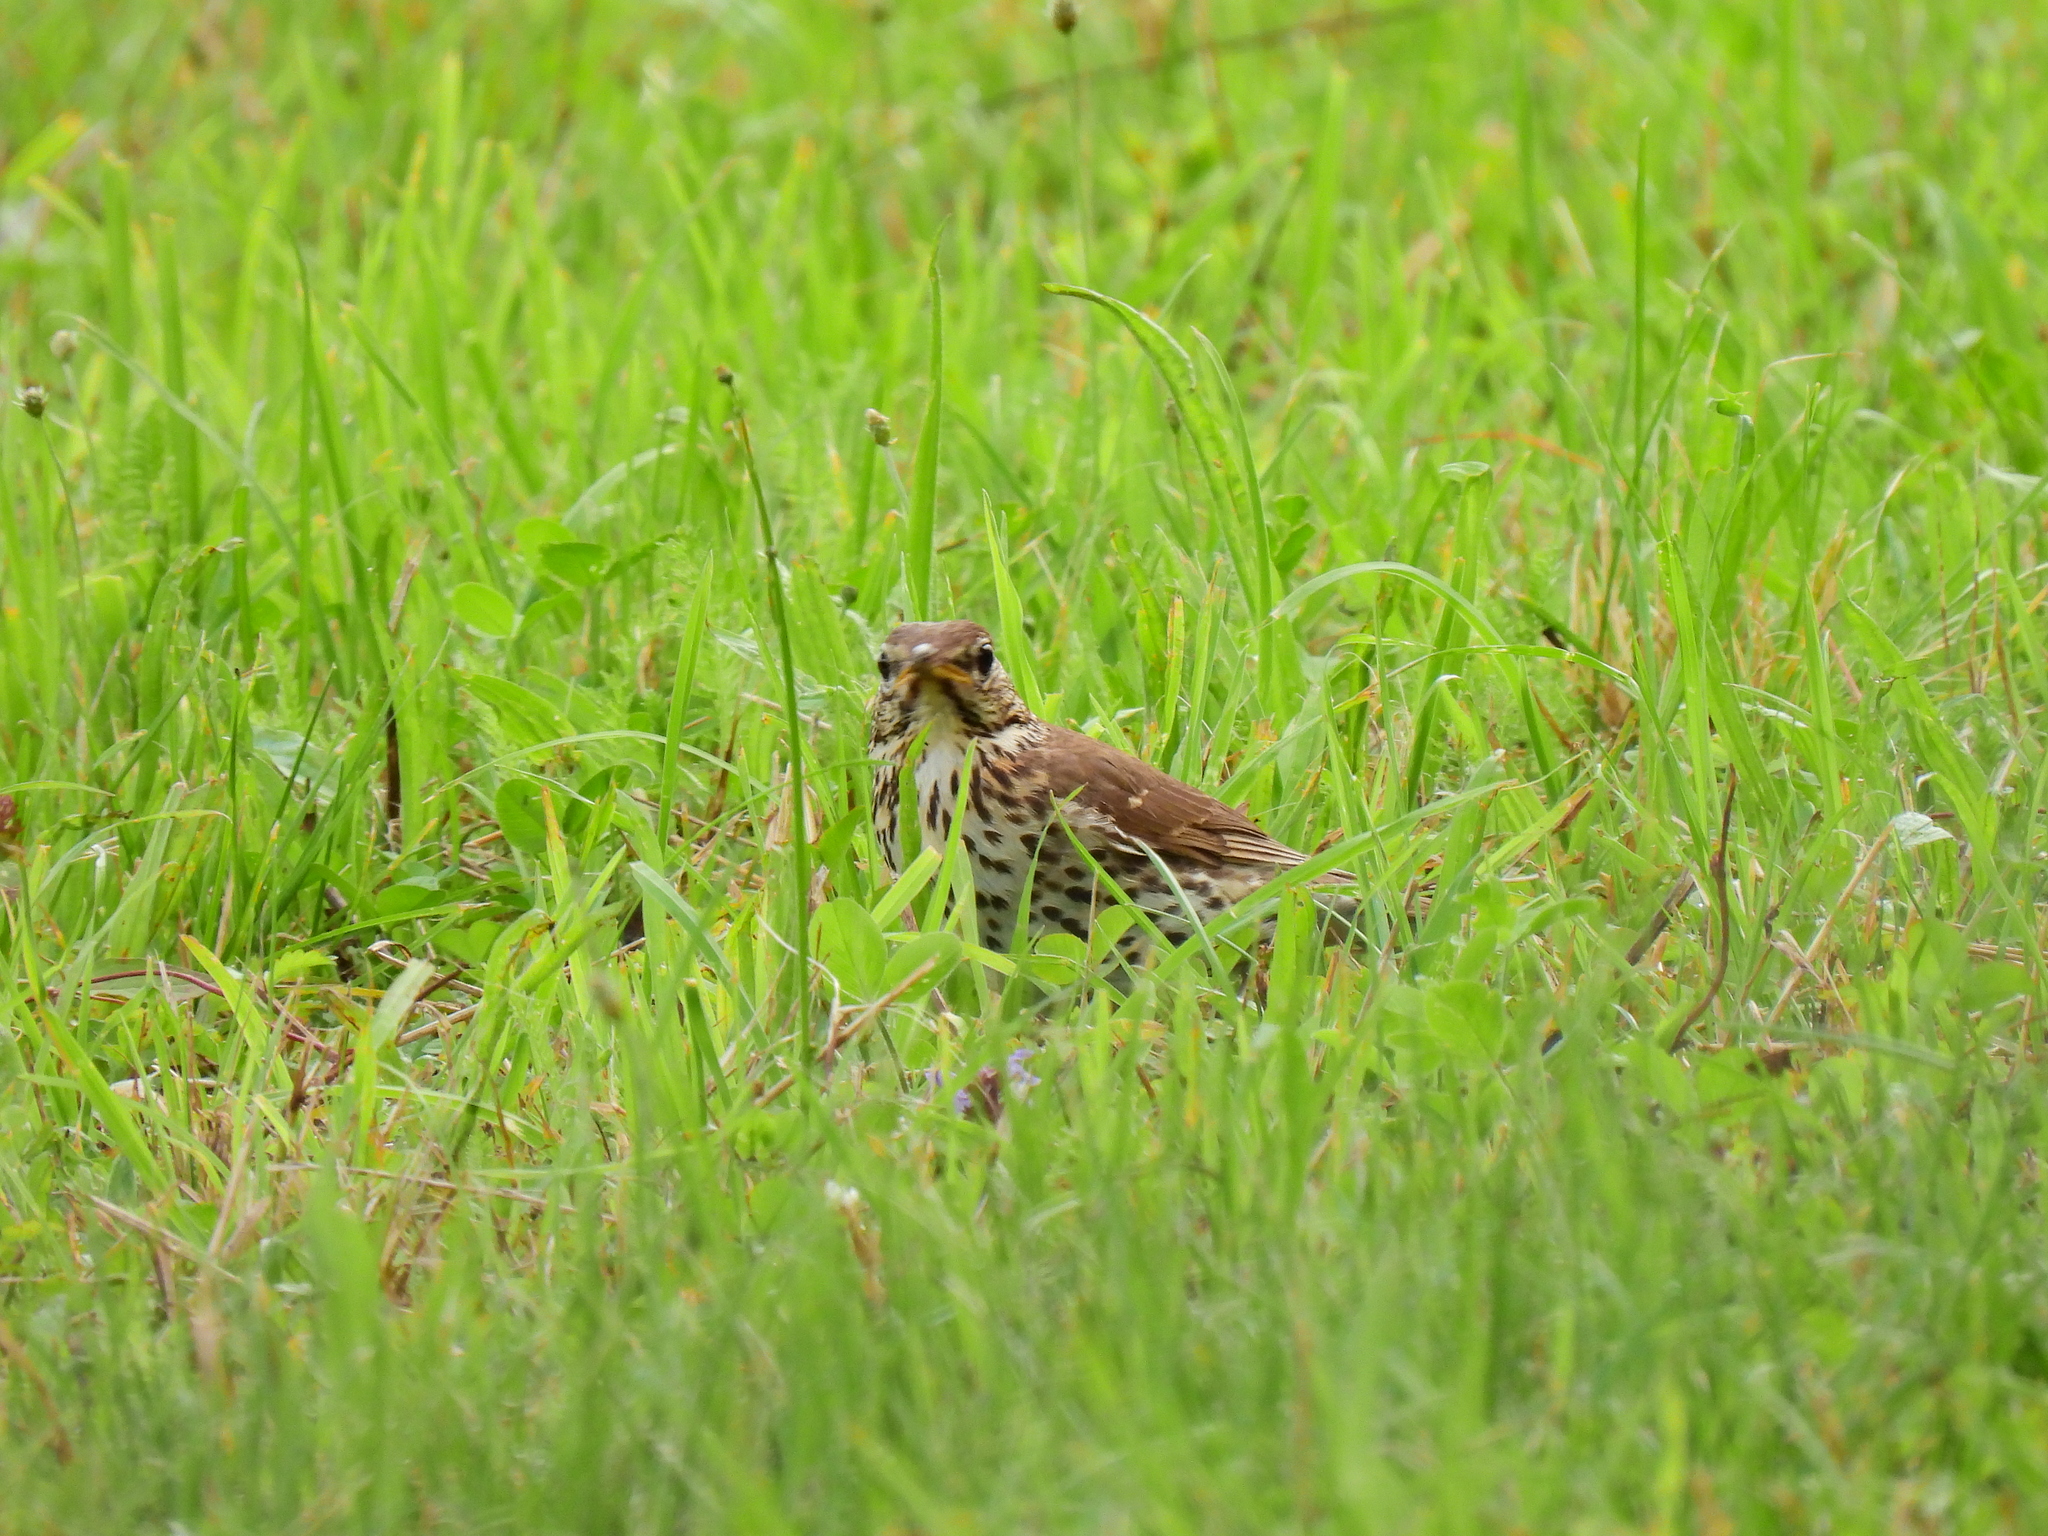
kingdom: Animalia
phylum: Chordata
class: Aves
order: Passeriformes
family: Turdidae
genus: Turdus
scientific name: Turdus philomelos
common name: Song thrush
